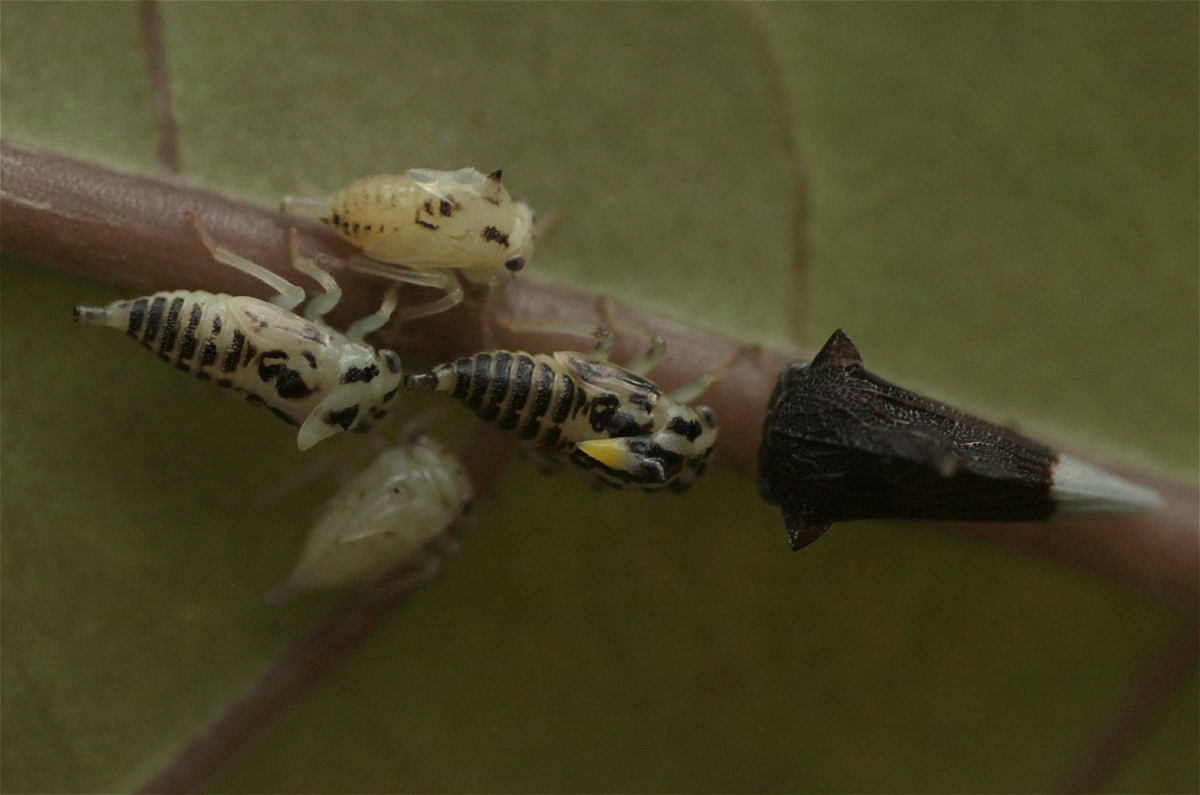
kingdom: Animalia
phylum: Arthropoda
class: Insecta
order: Hemiptera
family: Membracidae
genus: Ennya
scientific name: Ennya chrysura
